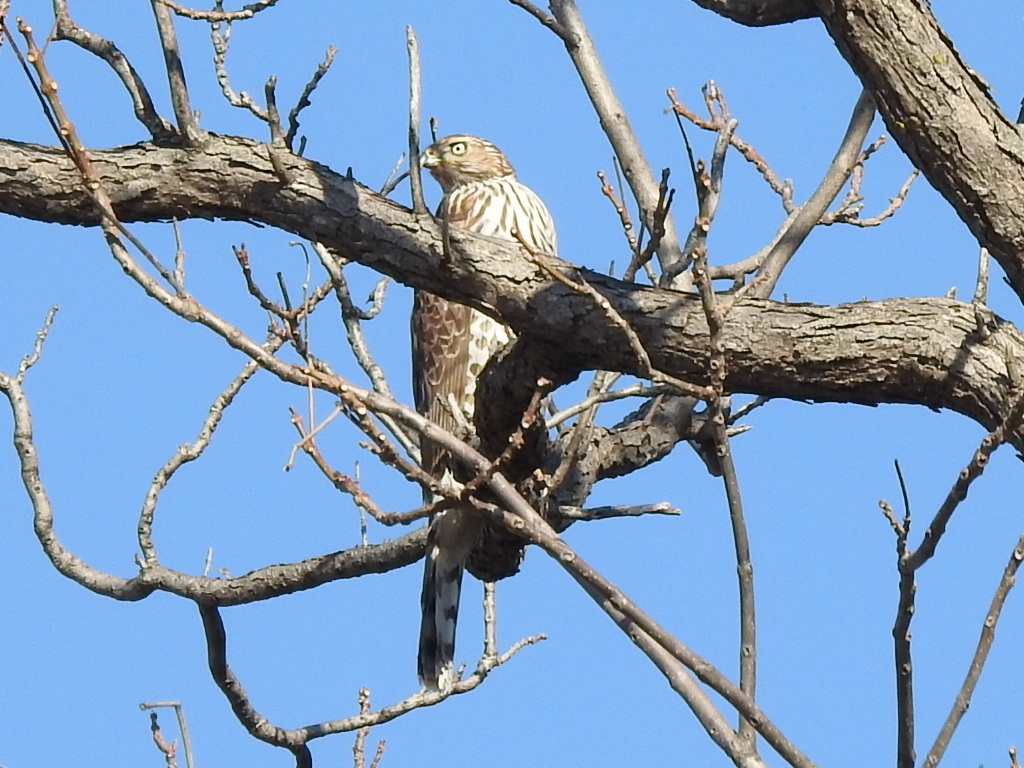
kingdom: Animalia
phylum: Chordata
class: Aves
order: Accipitriformes
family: Accipitridae
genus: Accipiter
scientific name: Accipiter cooperii
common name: Cooper's hawk
